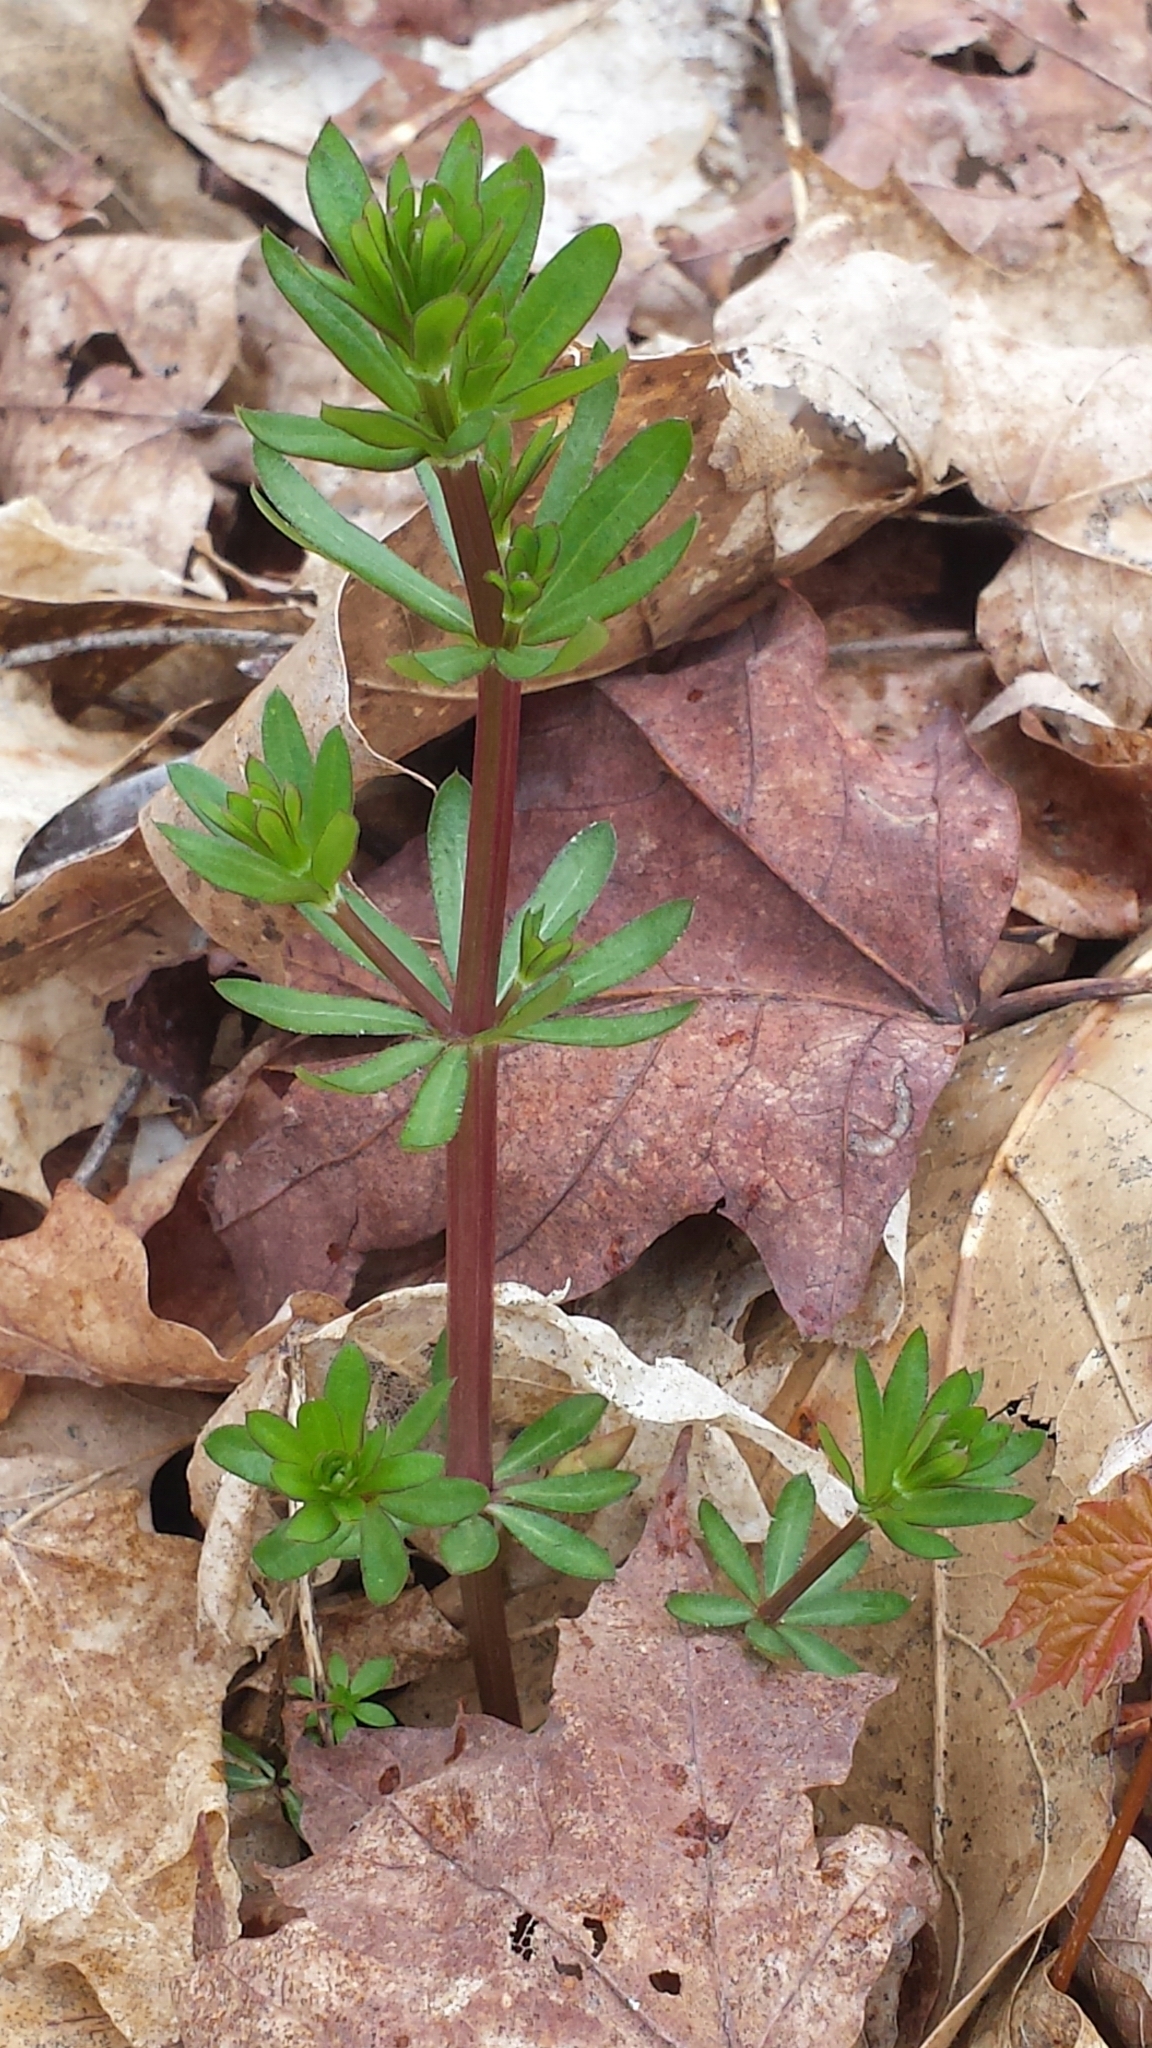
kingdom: Plantae
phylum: Tracheophyta
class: Magnoliopsida
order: Gentianales
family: Rubiaceae
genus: Galium
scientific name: Galium mollugo
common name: Hedge bedstraw
